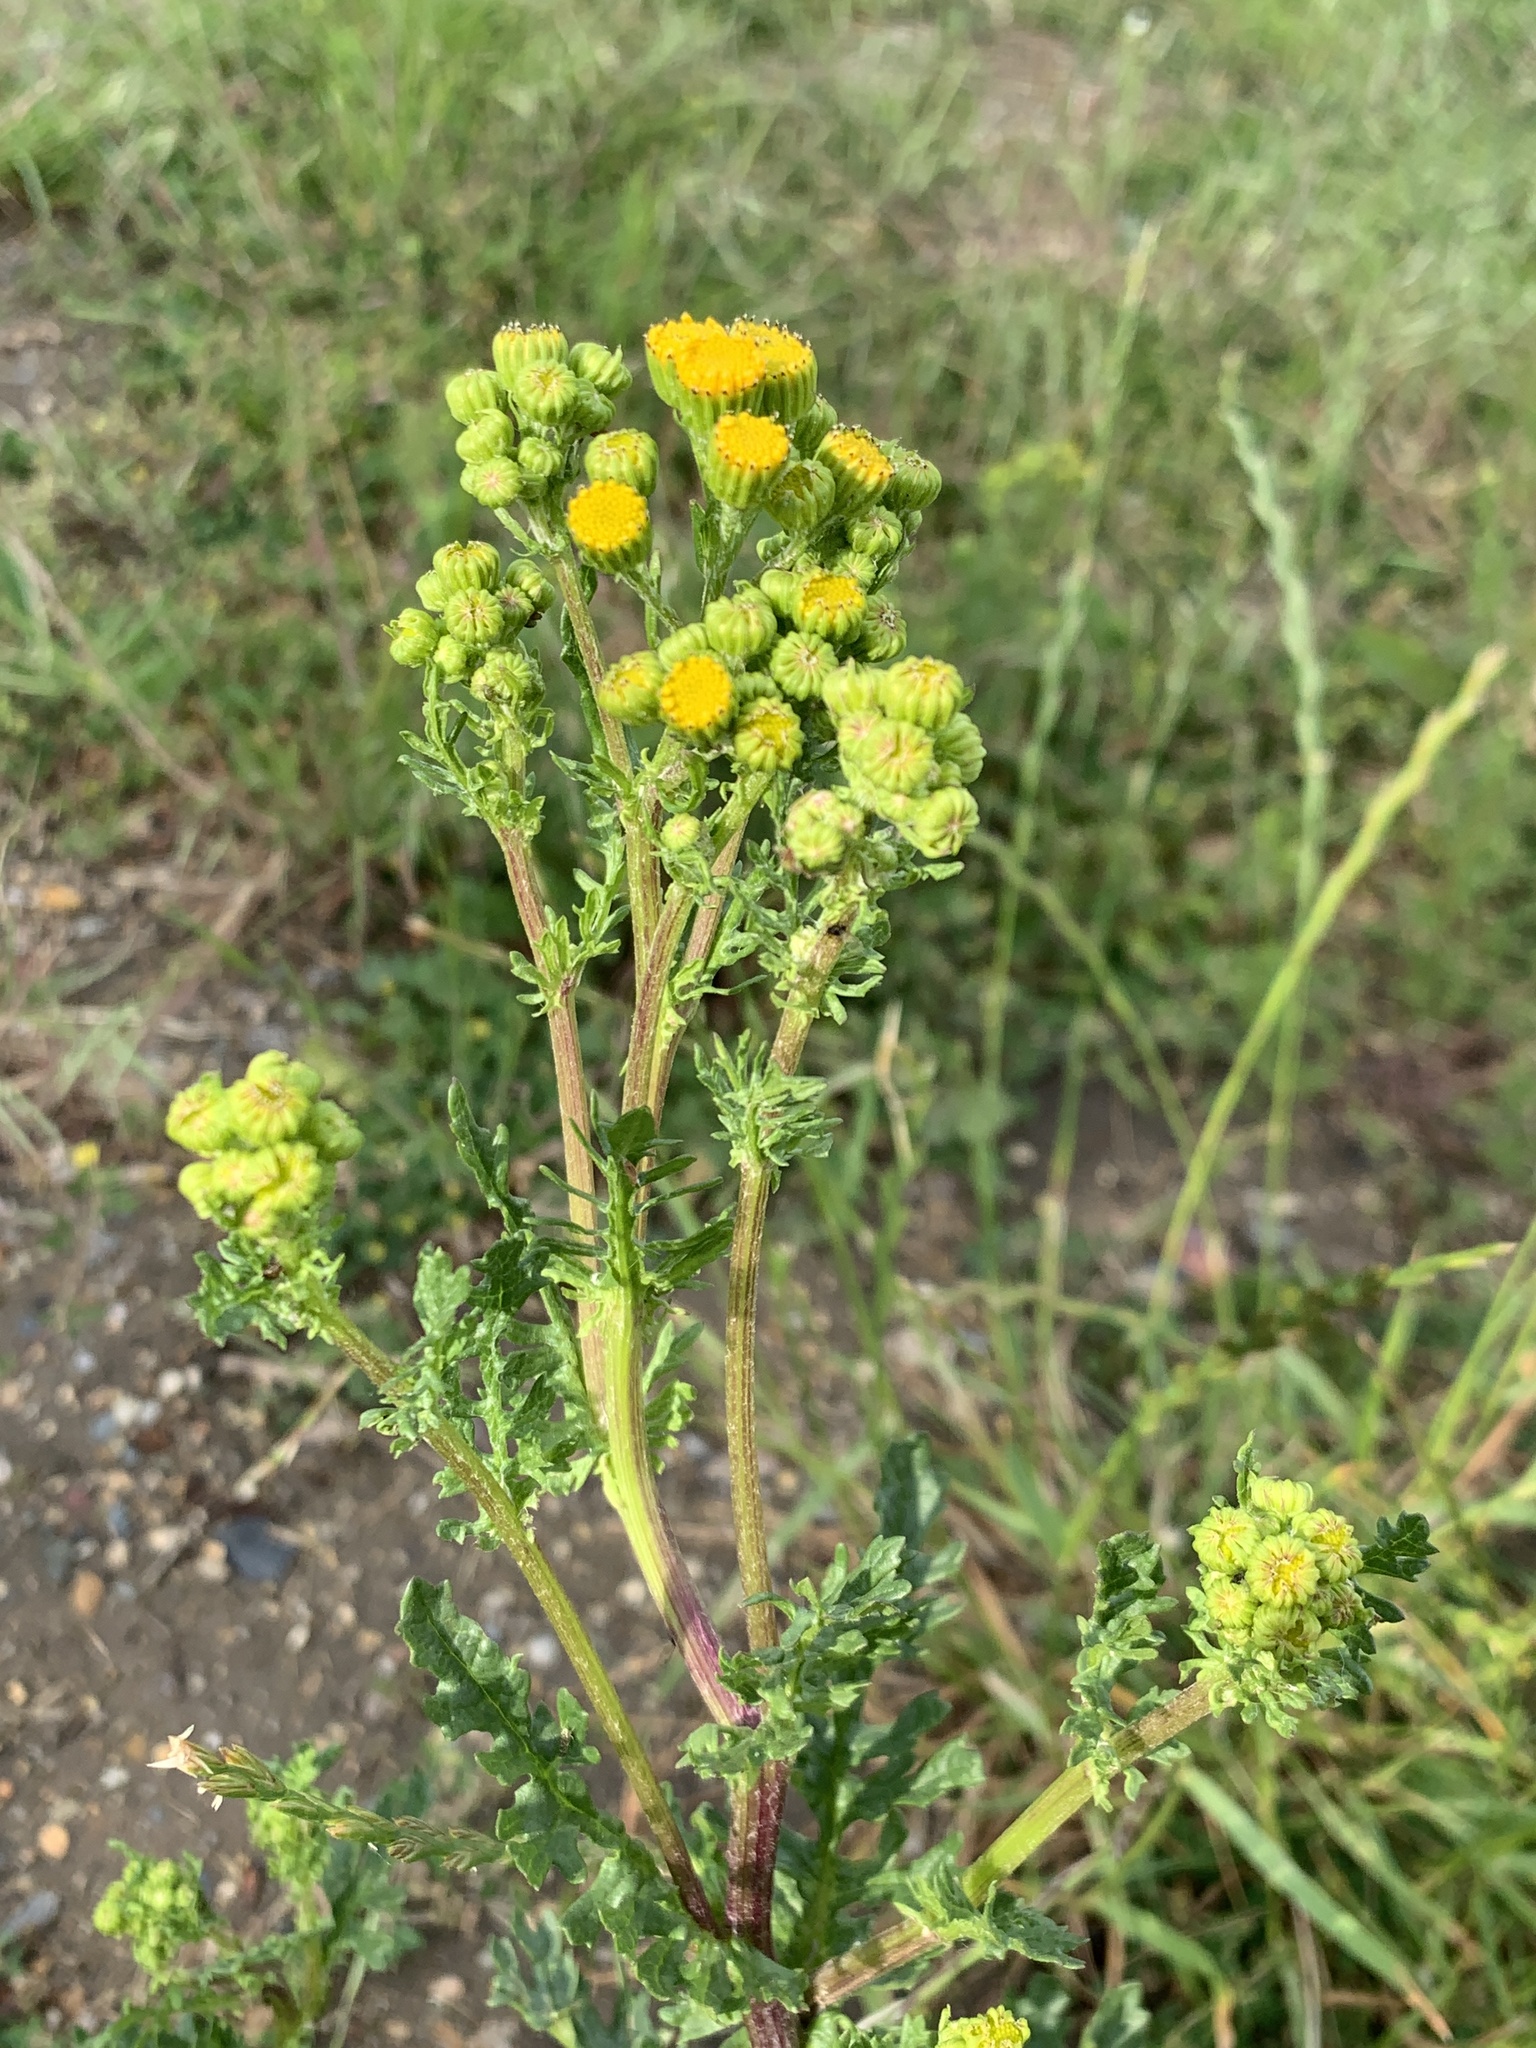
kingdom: Plantae
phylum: Tracheophyta
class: Magnoliopsida
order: Asterales
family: Asteraceae
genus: Jacobaea
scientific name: Jacobaea vulgaris
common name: Stinking willie
